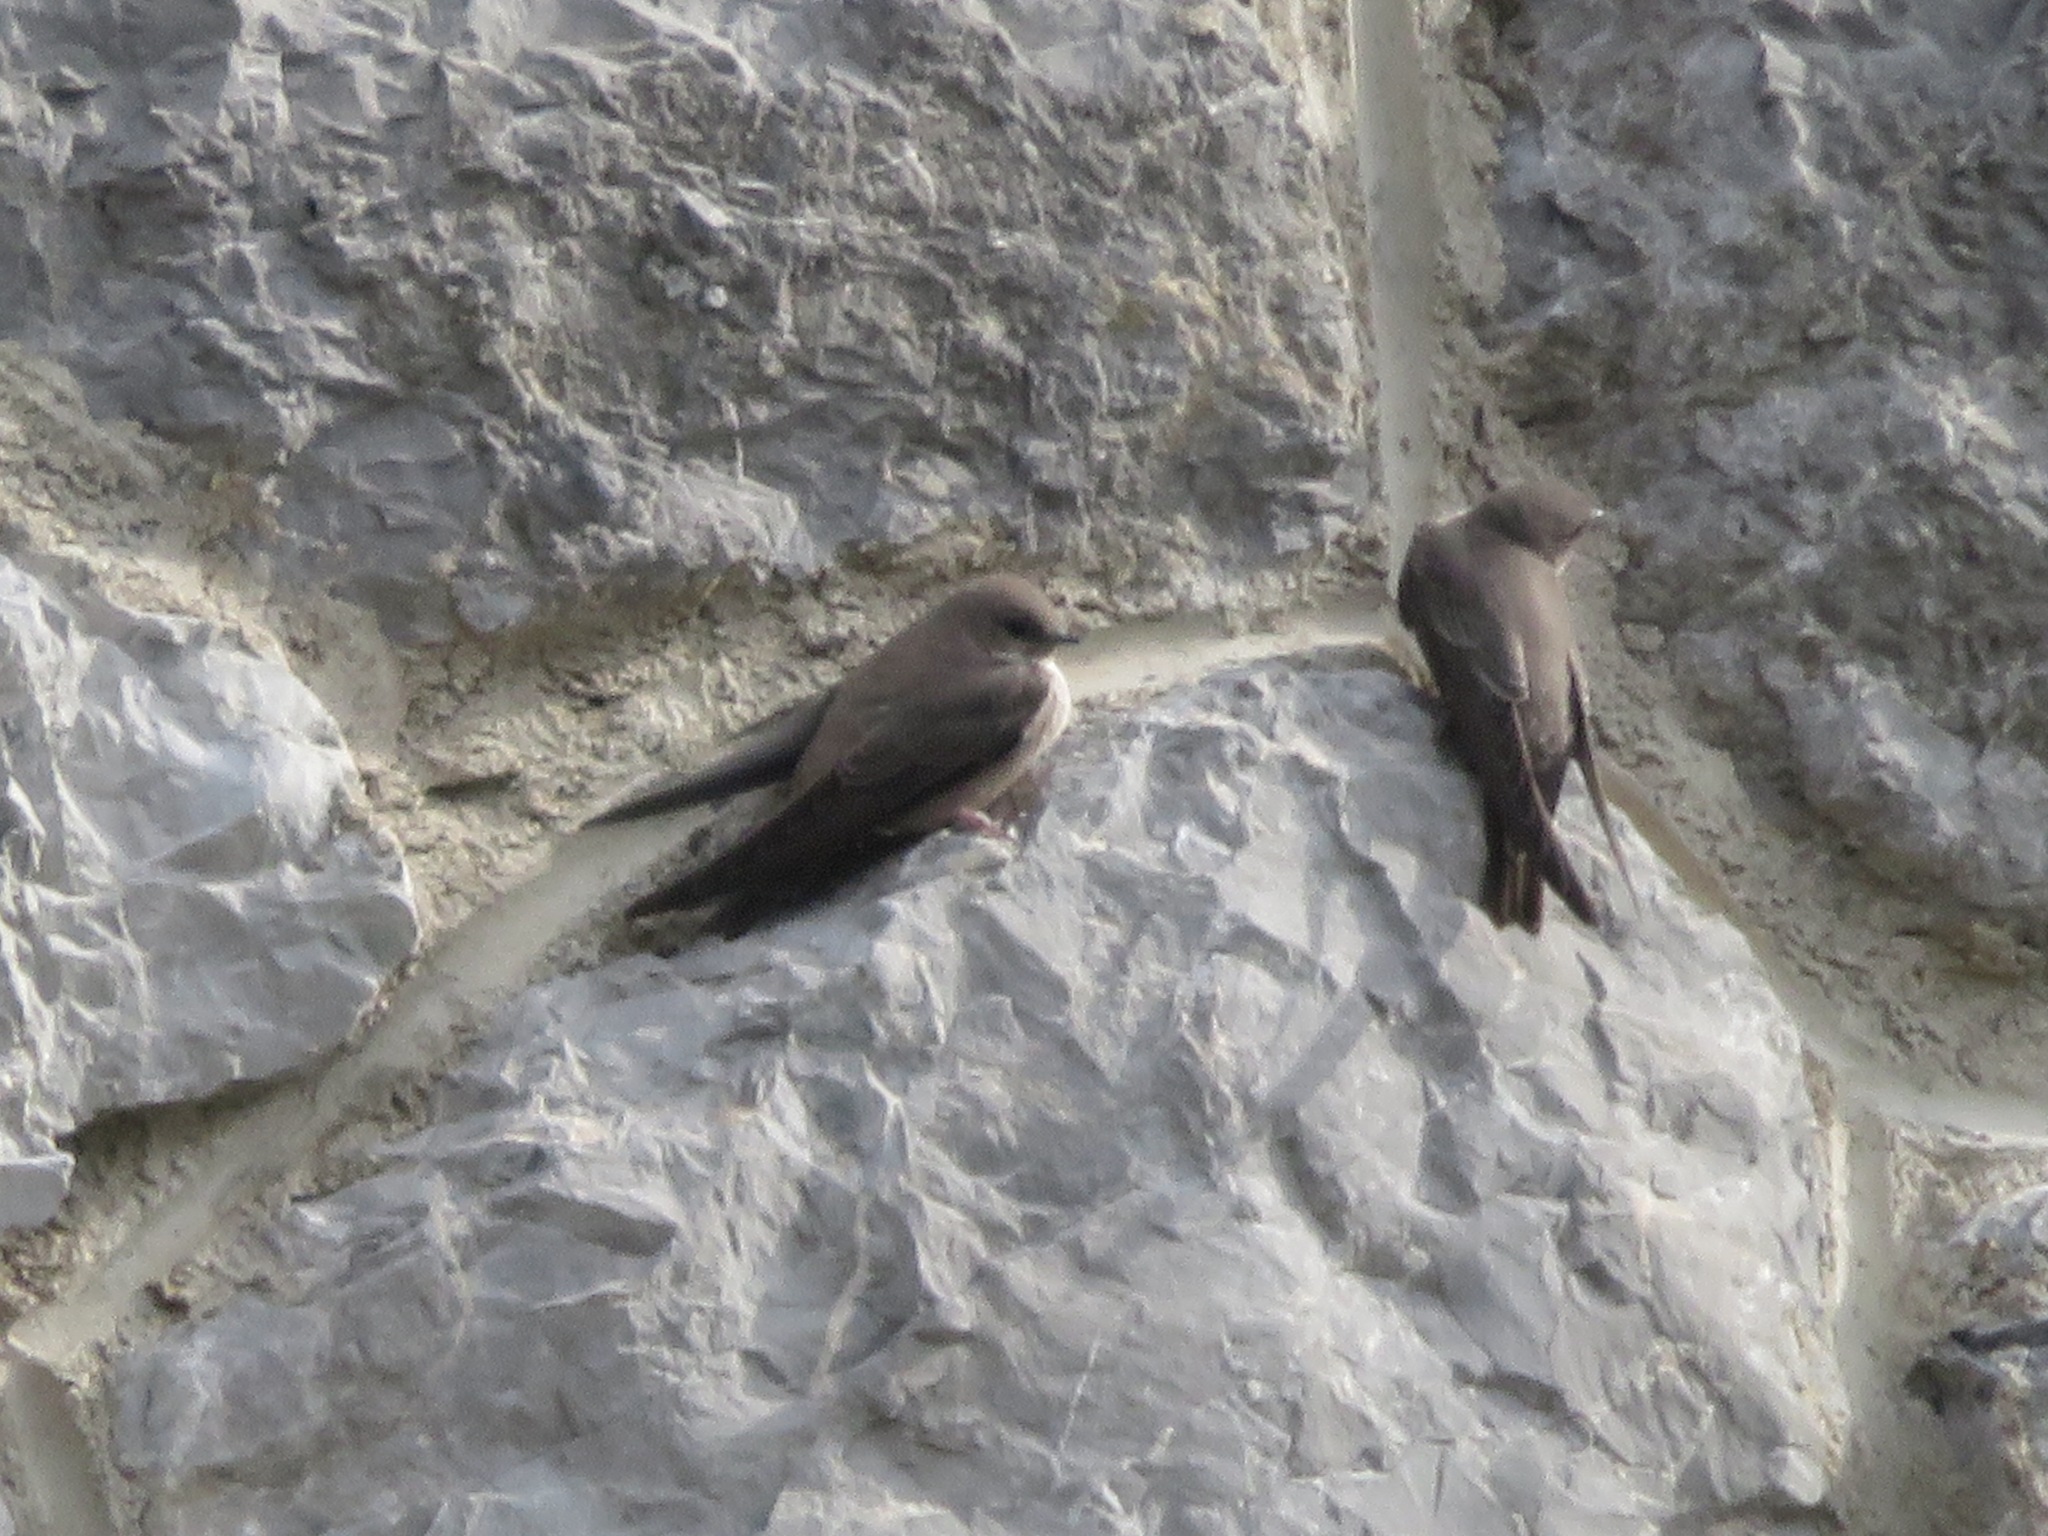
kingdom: Animalia
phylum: Chordata
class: Aves
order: Passeriformes
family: Hirundinidae
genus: Ptyonoprogne
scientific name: Ptyonoprogne rupestris
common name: Eurasian crag martin
